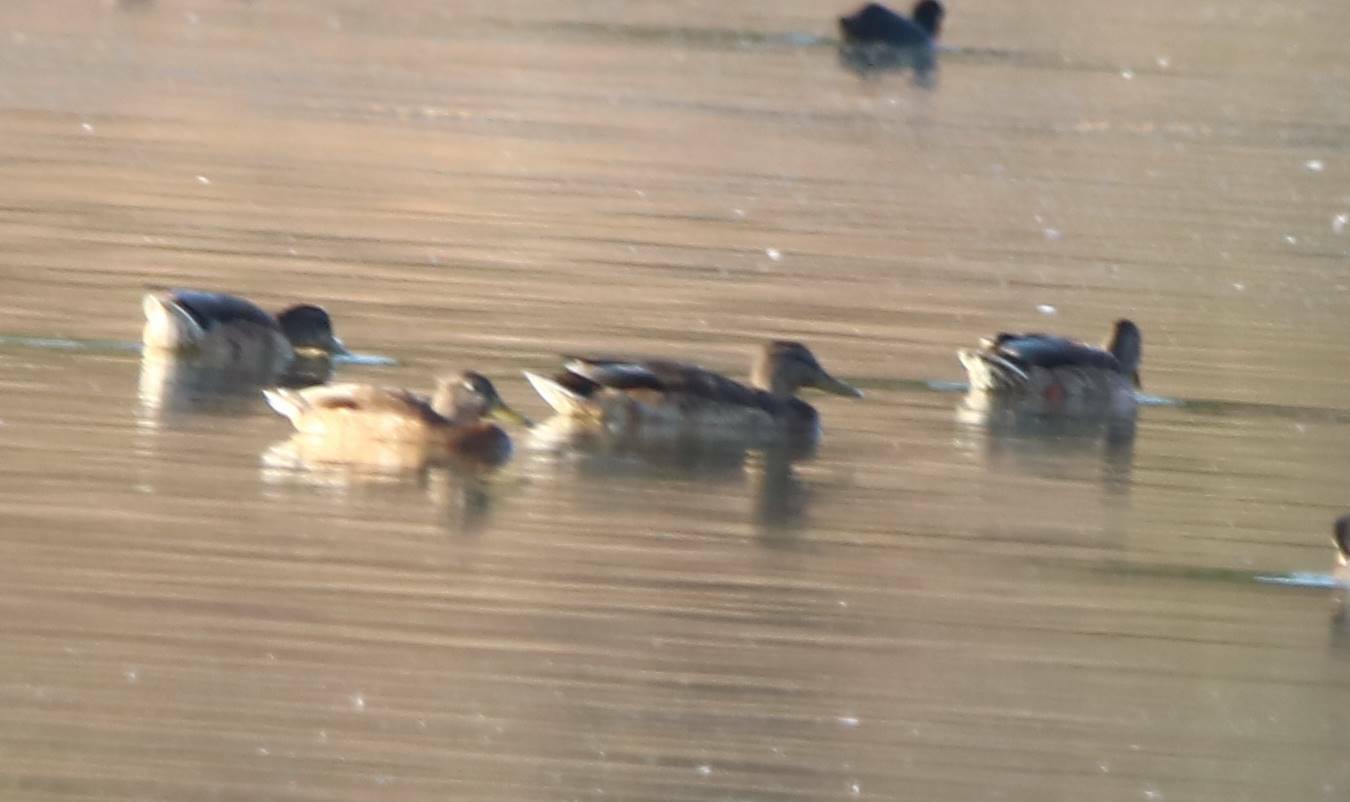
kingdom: Animalia
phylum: Chordata
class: Aves
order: Anseriformes
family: Anatidae
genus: Anas
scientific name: Anas platyrhynchos
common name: Mallard
